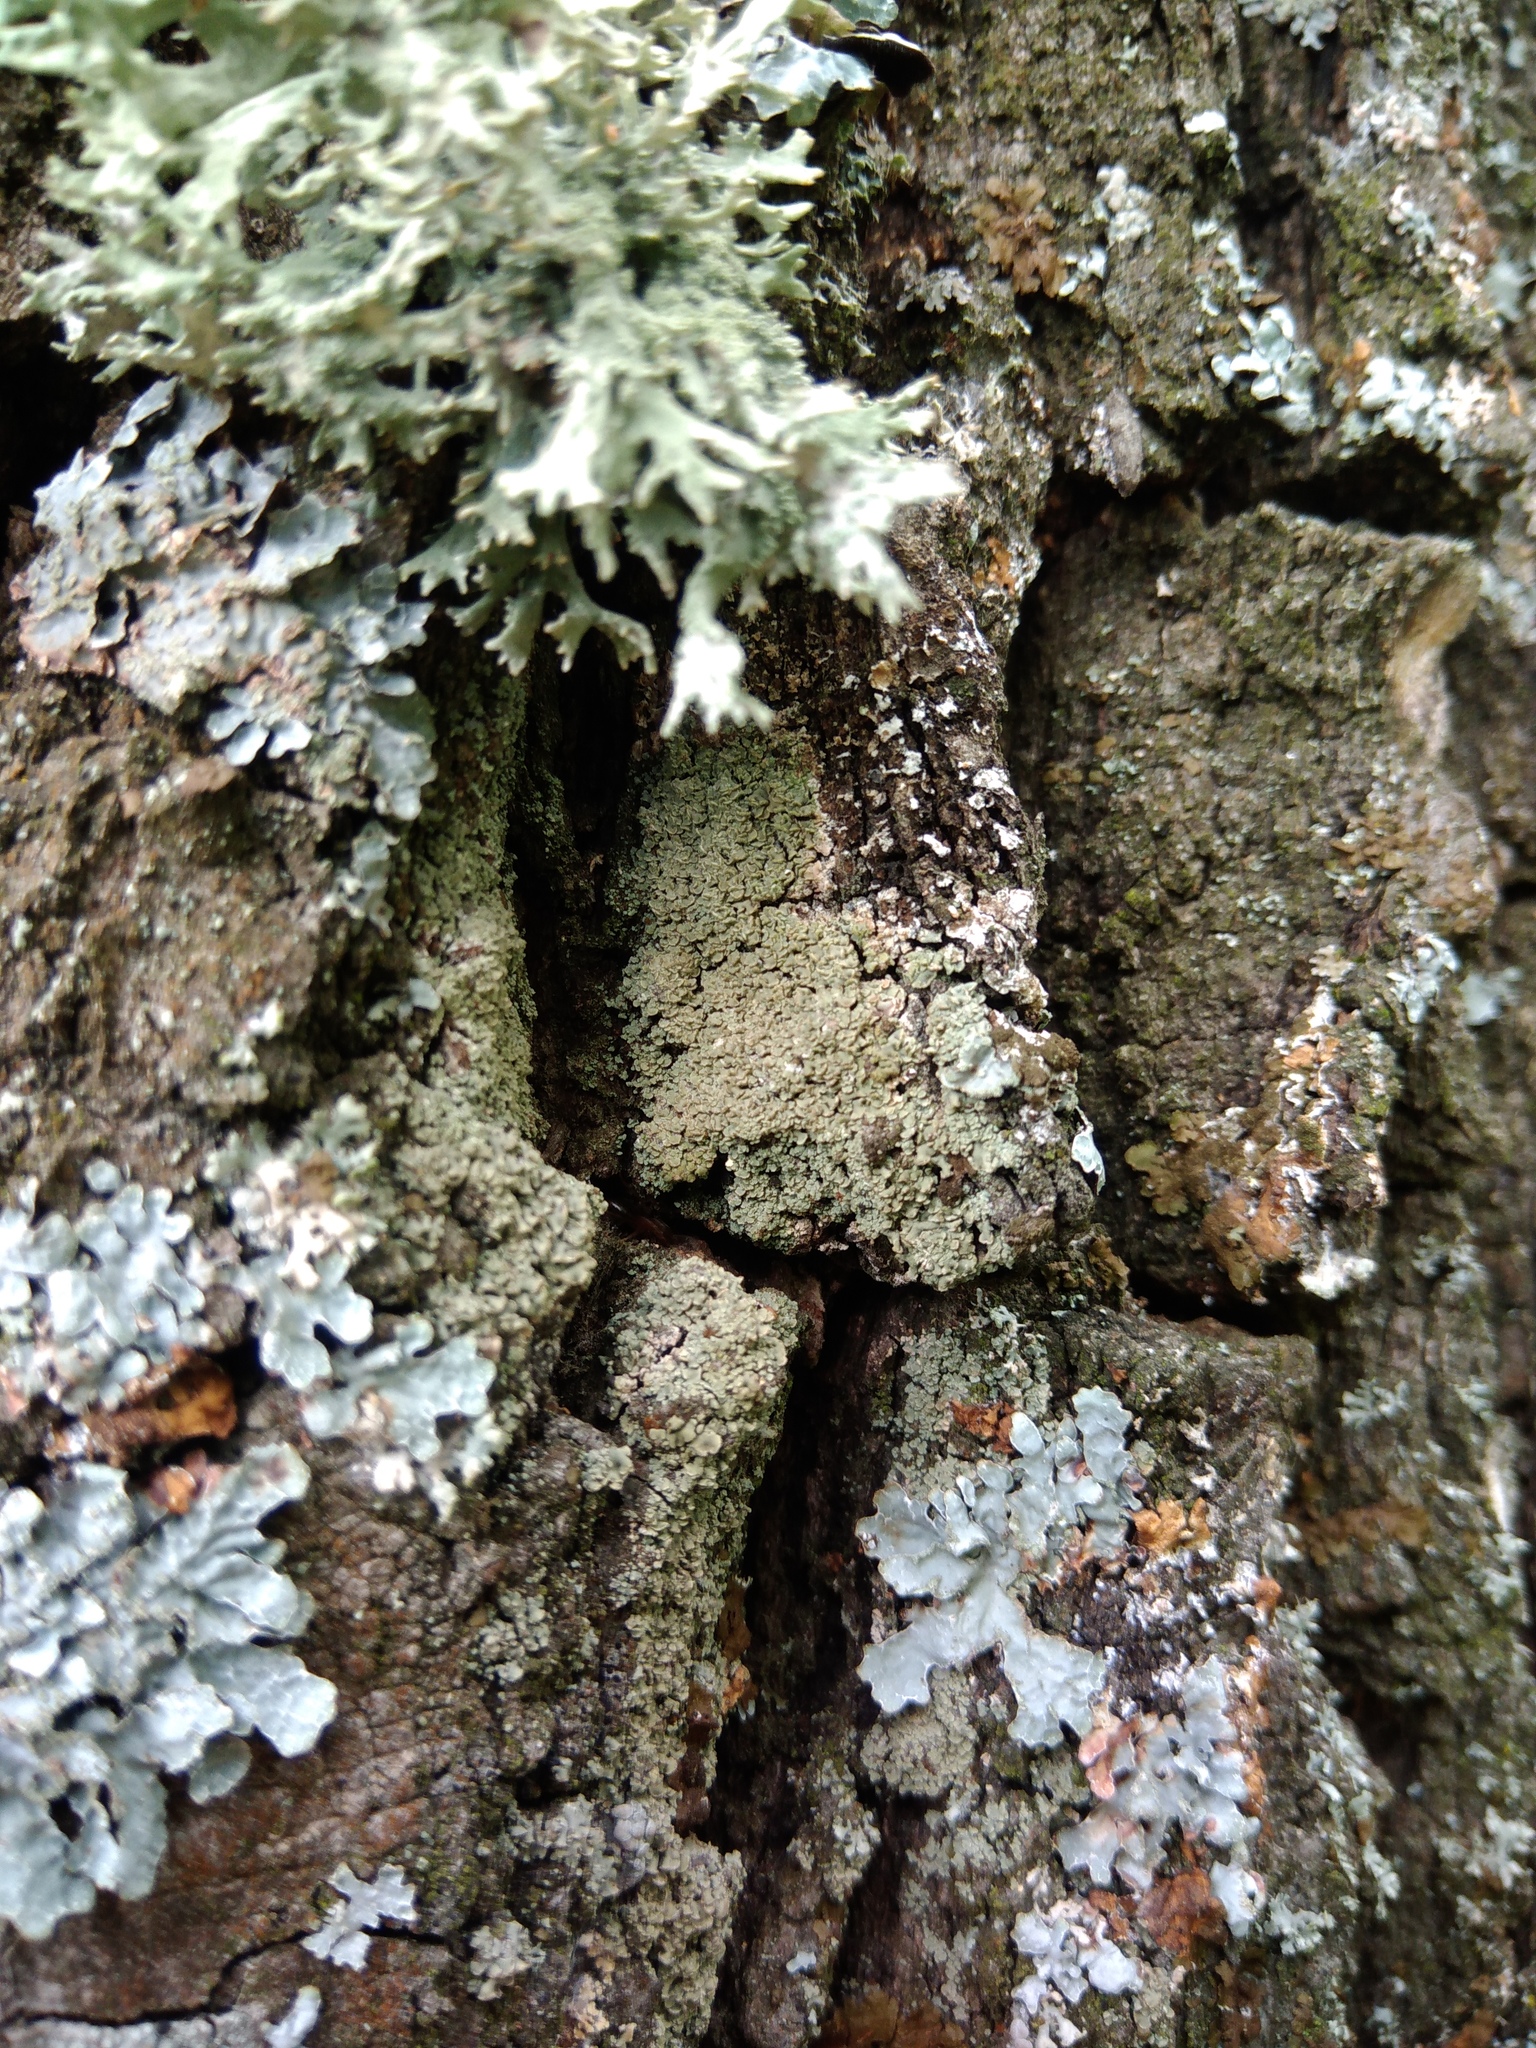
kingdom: Fungi
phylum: Ascomycota
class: Lecanoromycetes
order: Umbilicariales
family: Ophioparmaceae
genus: Hypocenomyce
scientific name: Hypocenomyce scalaris
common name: Common clam lichen
